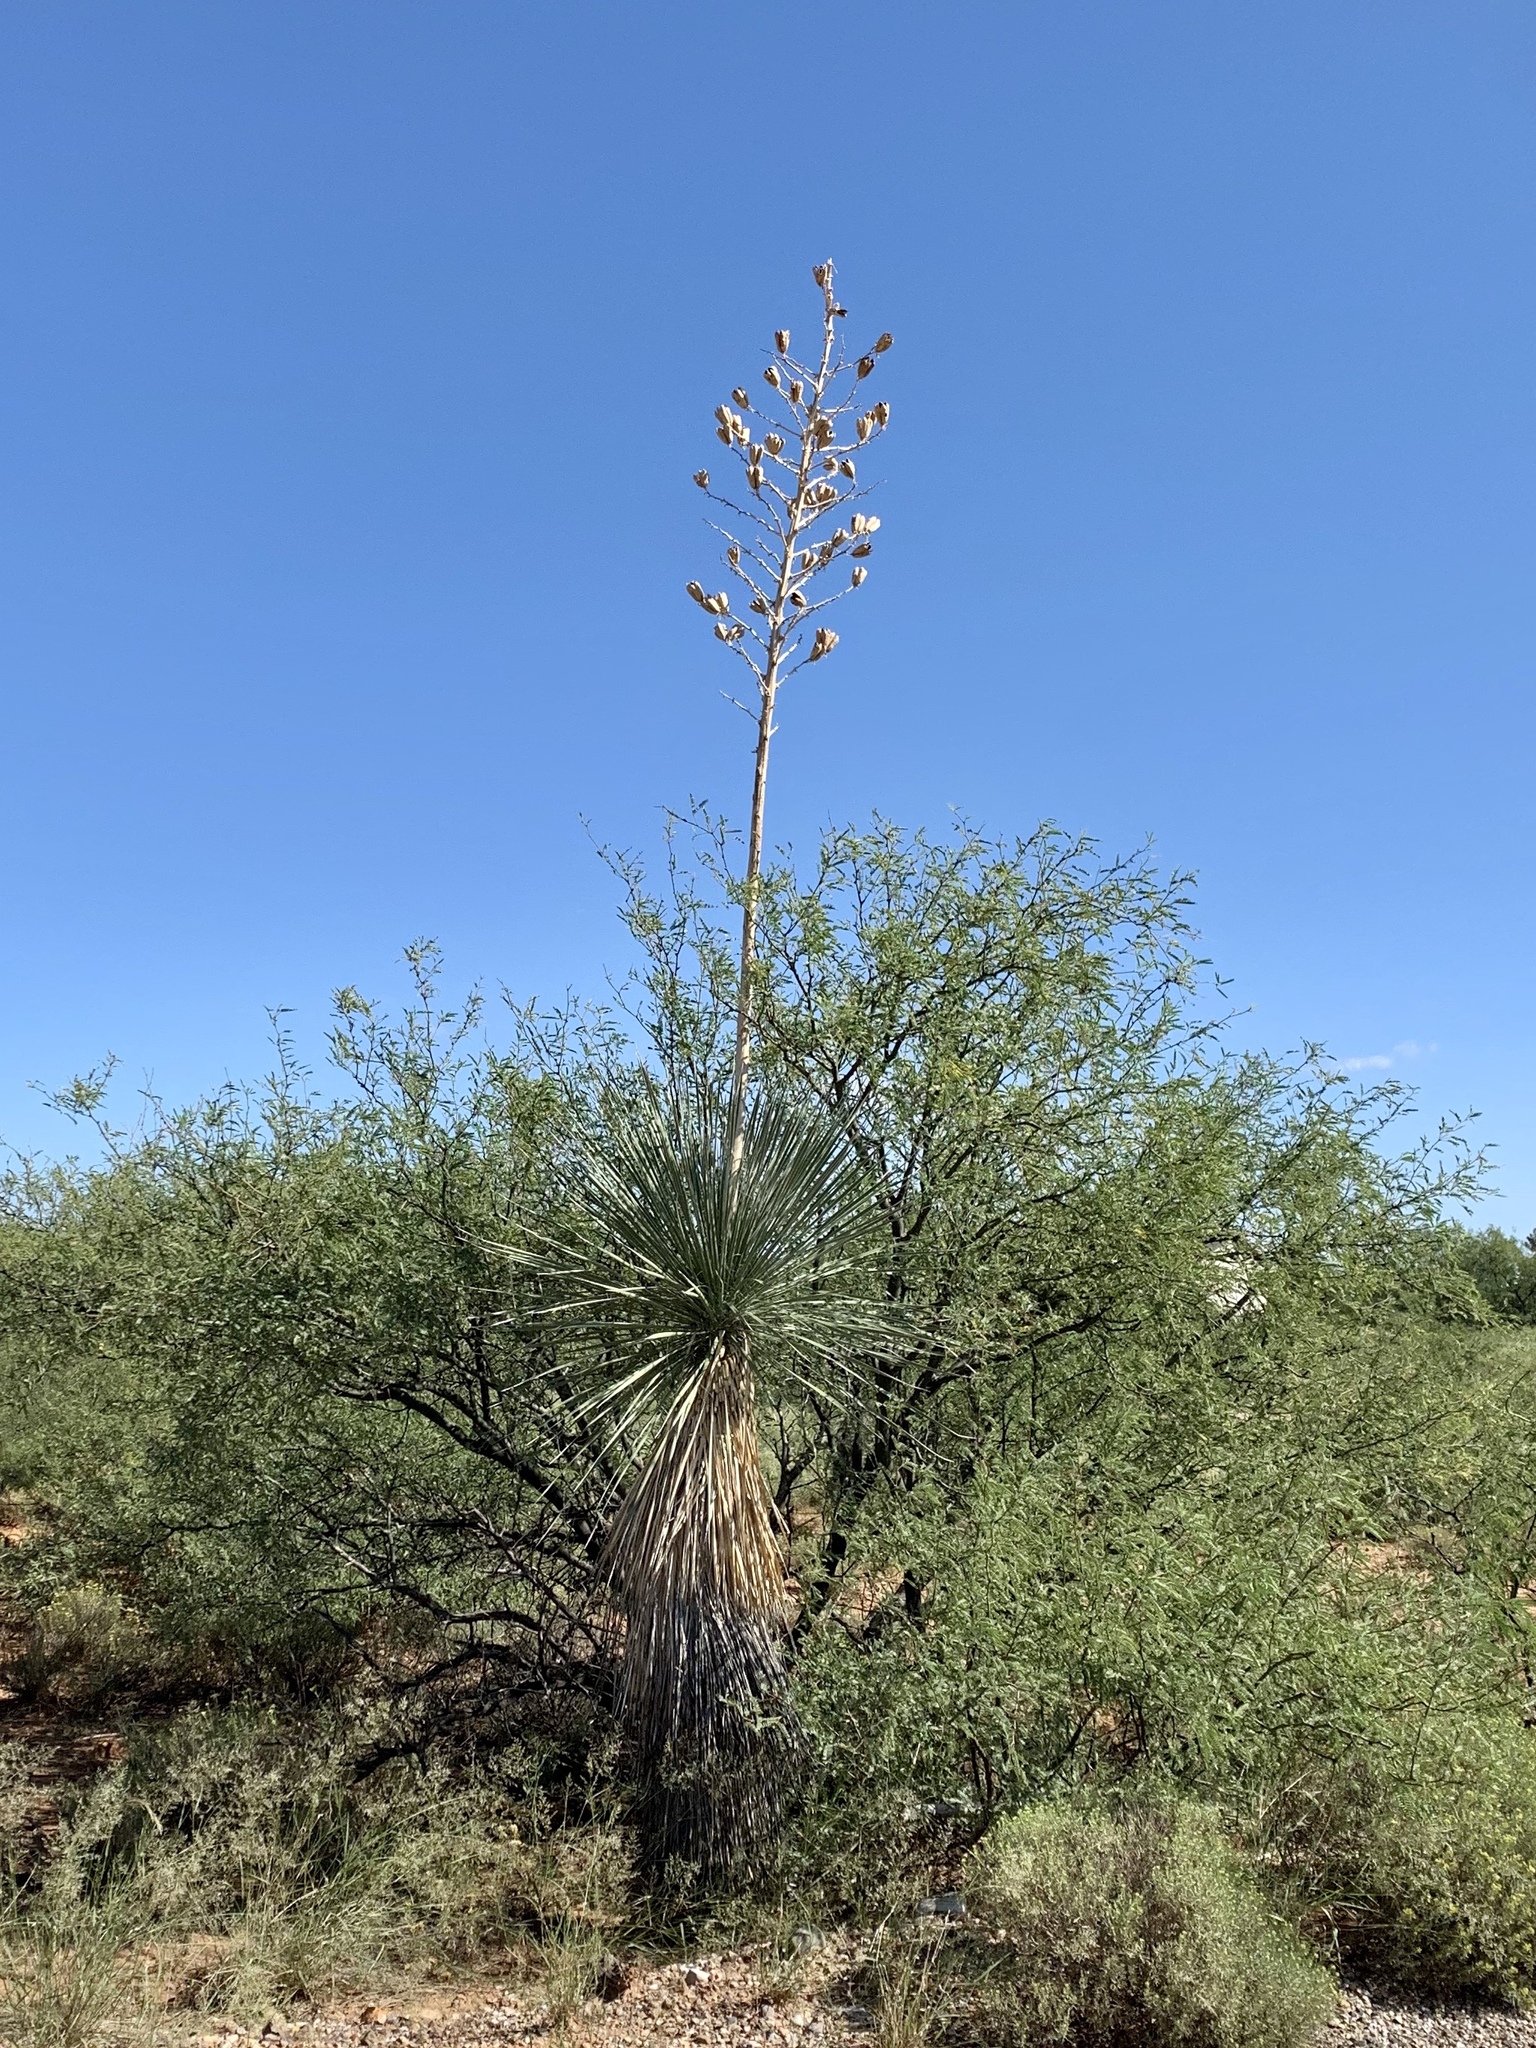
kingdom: Plantae
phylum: Tracheophyta
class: Liliopsida
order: Asparagales
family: Asparagaceae
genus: Yucca
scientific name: Yucca elata
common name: Palmella
